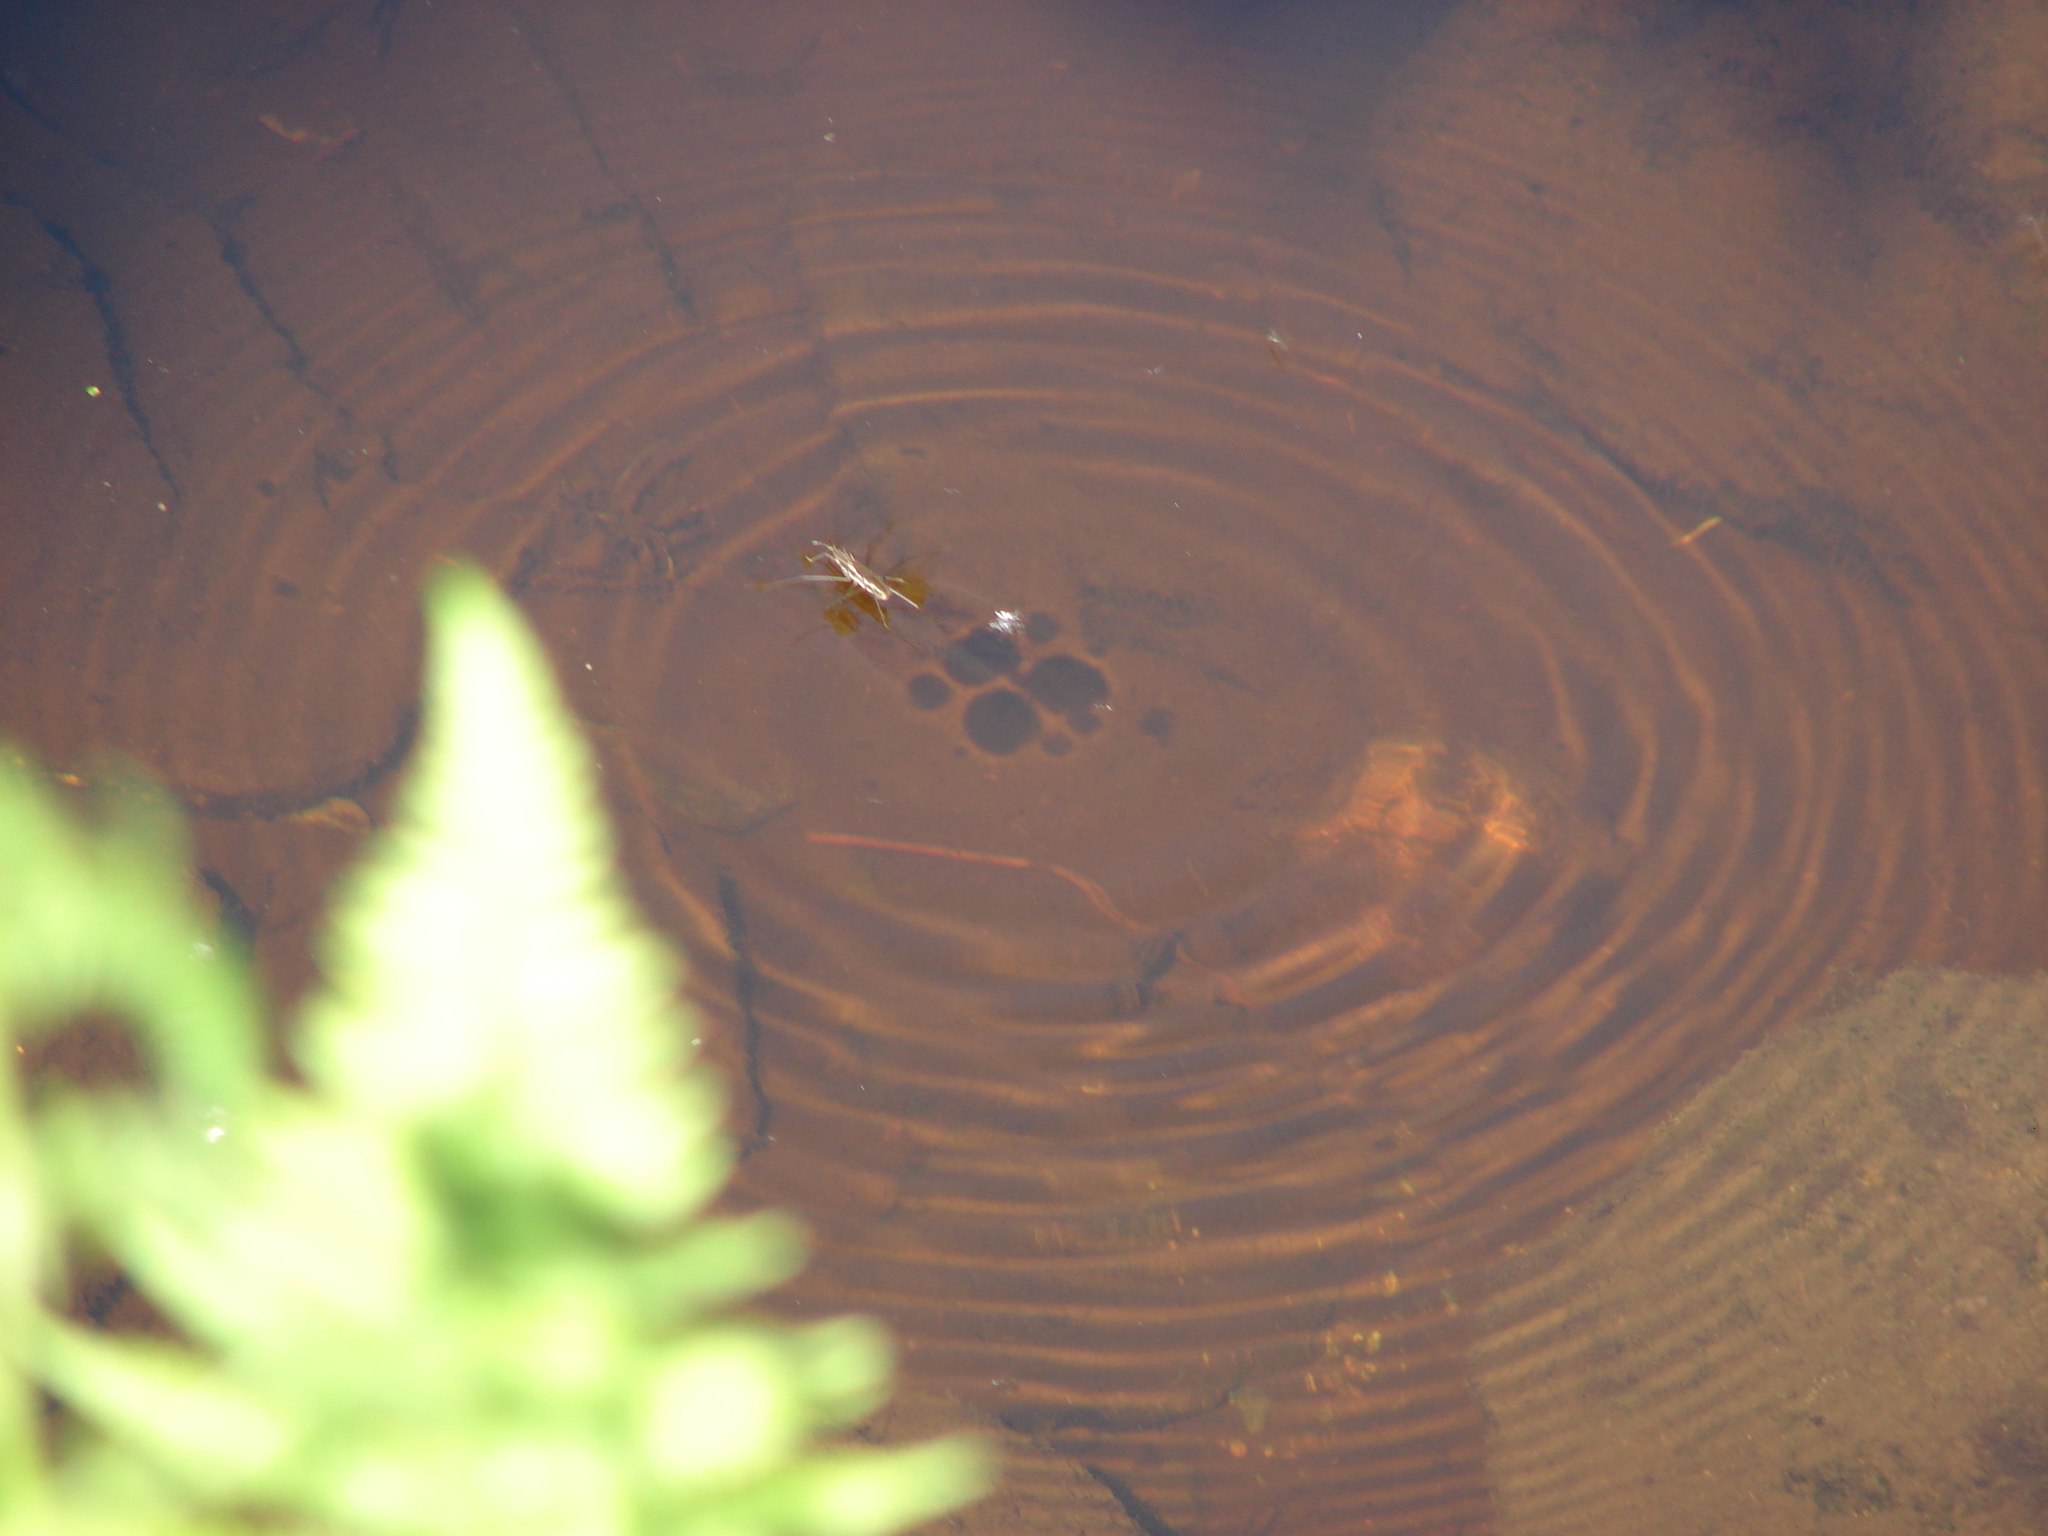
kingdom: Animalia
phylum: Arthropoda
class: Insecta
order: Hemiptera
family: Gerridae
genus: Aquarius
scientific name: Aquarius remigis
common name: Common water strider
